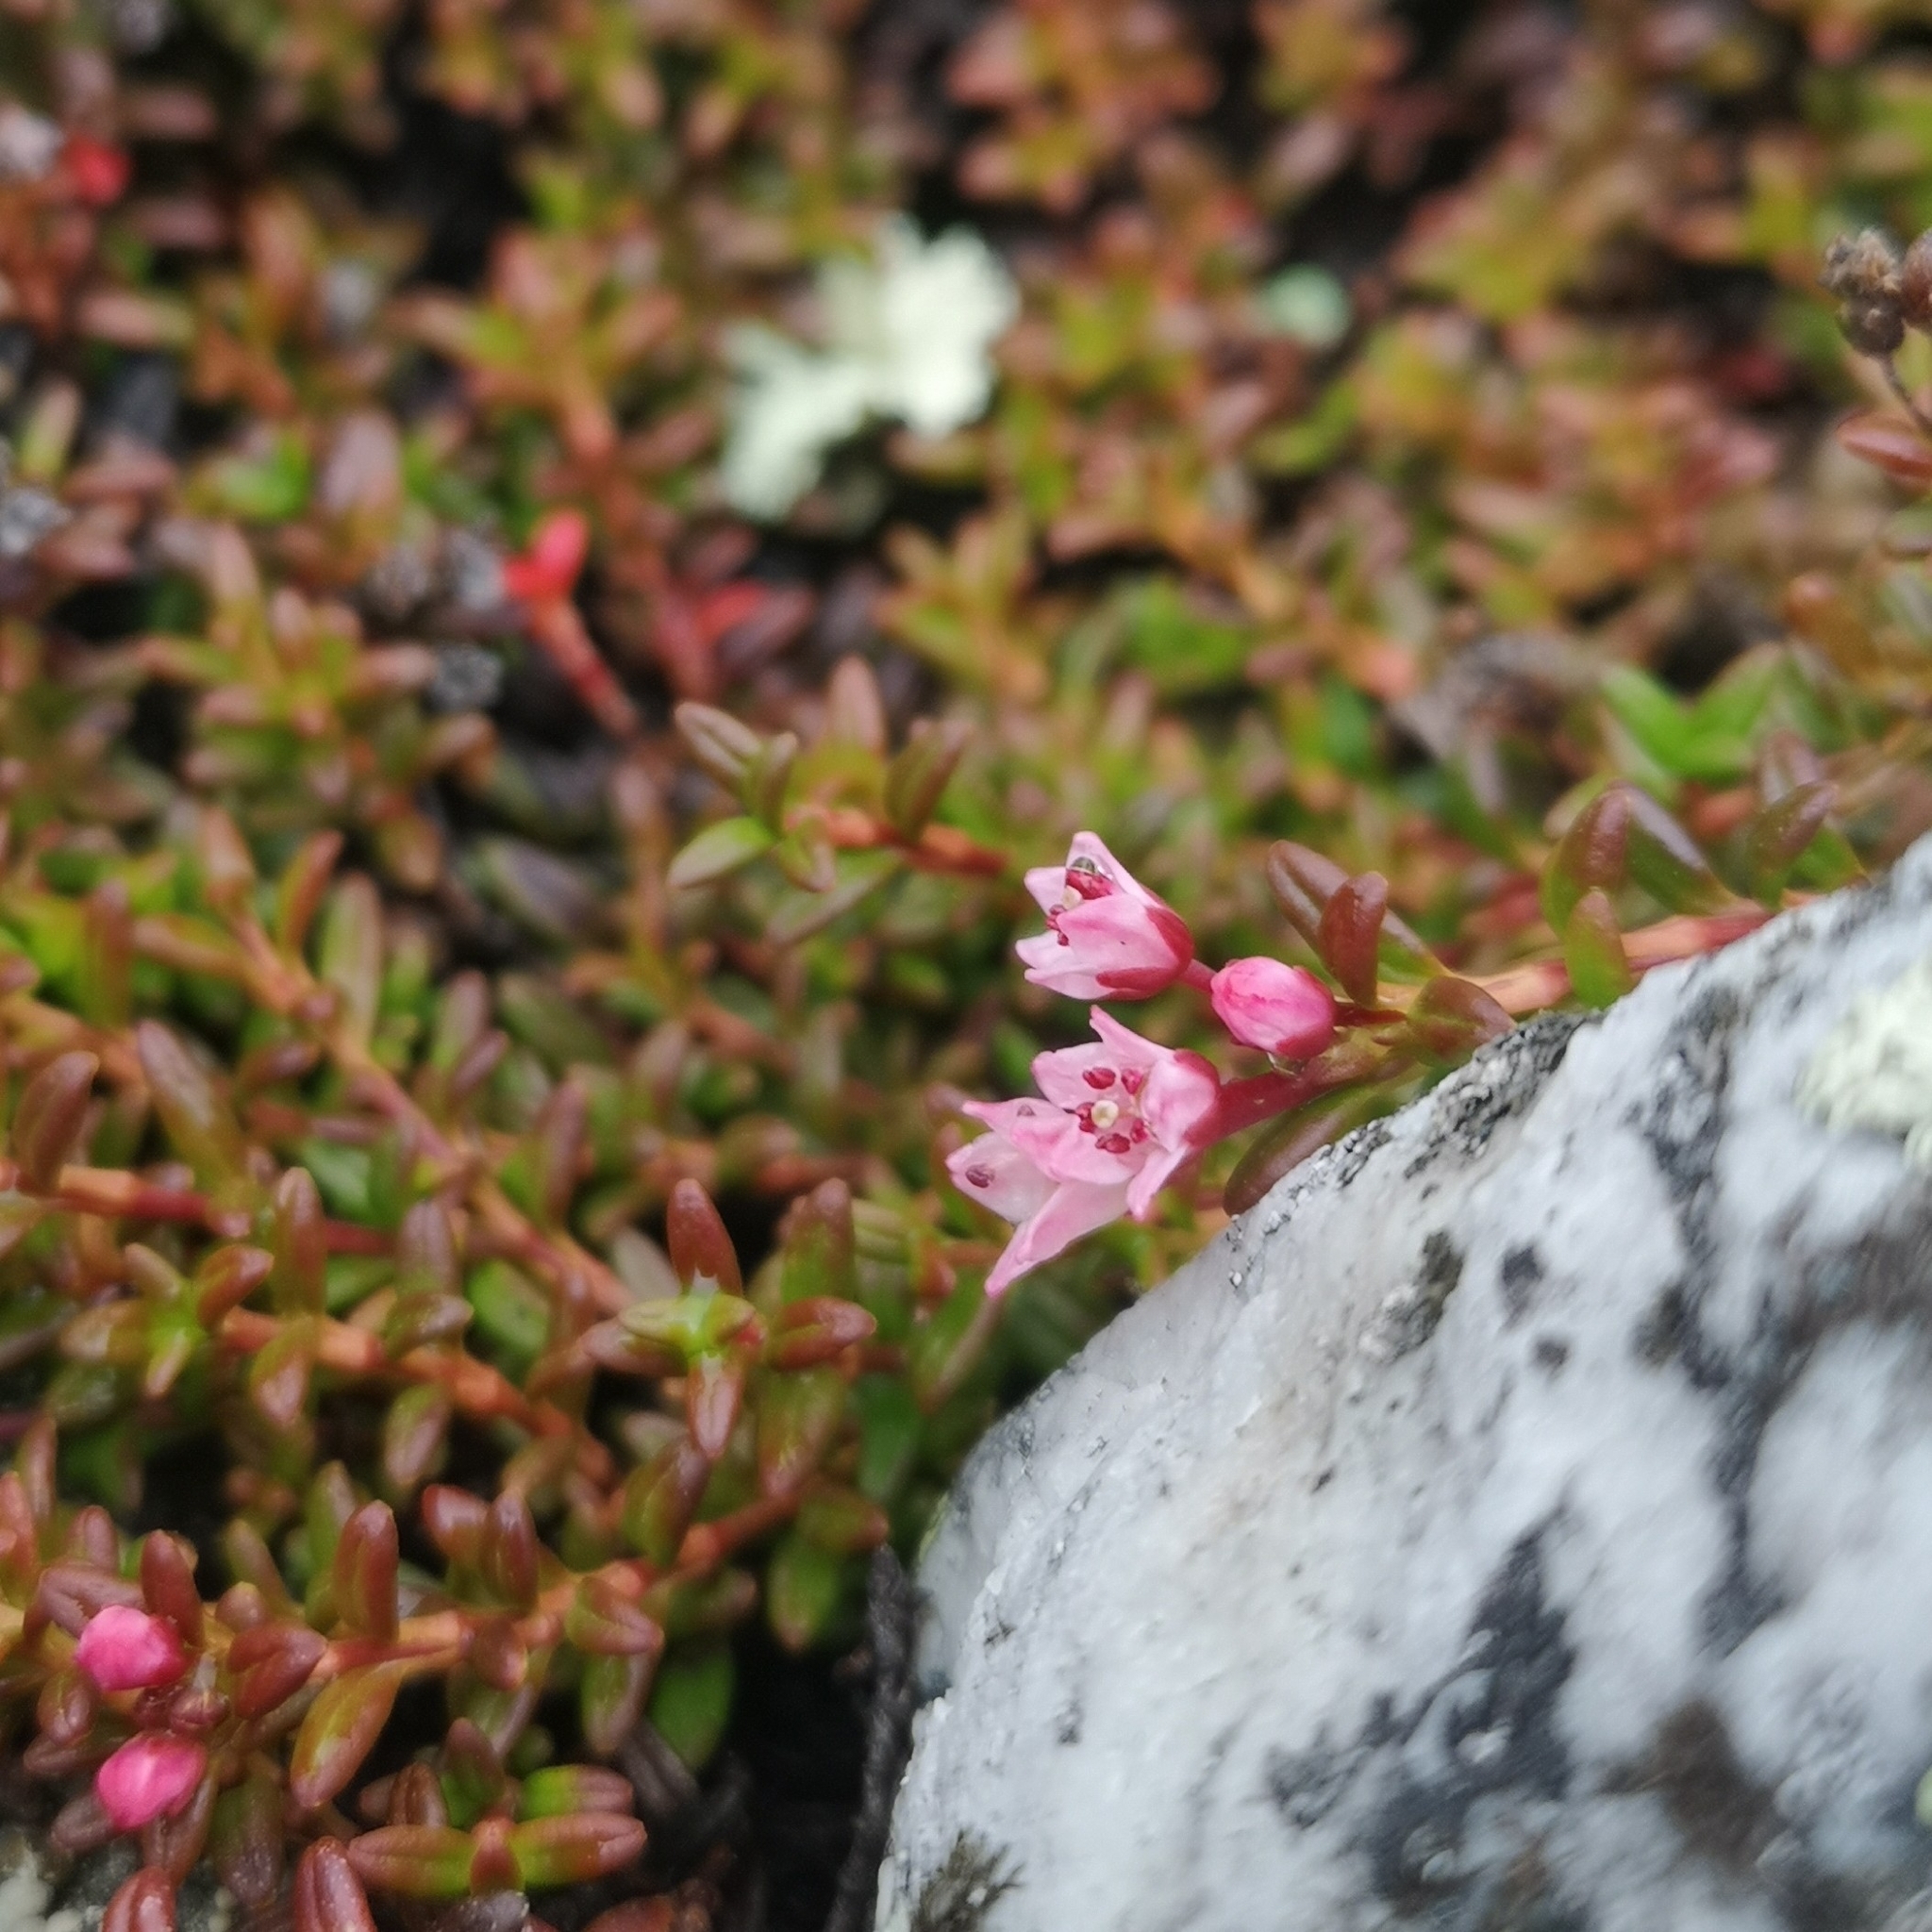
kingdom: Plantae
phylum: Tracheophyta
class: Magnoliopsida
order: Ericales
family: Ericaceae
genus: Kalmia
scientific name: Kalmia procumbens
